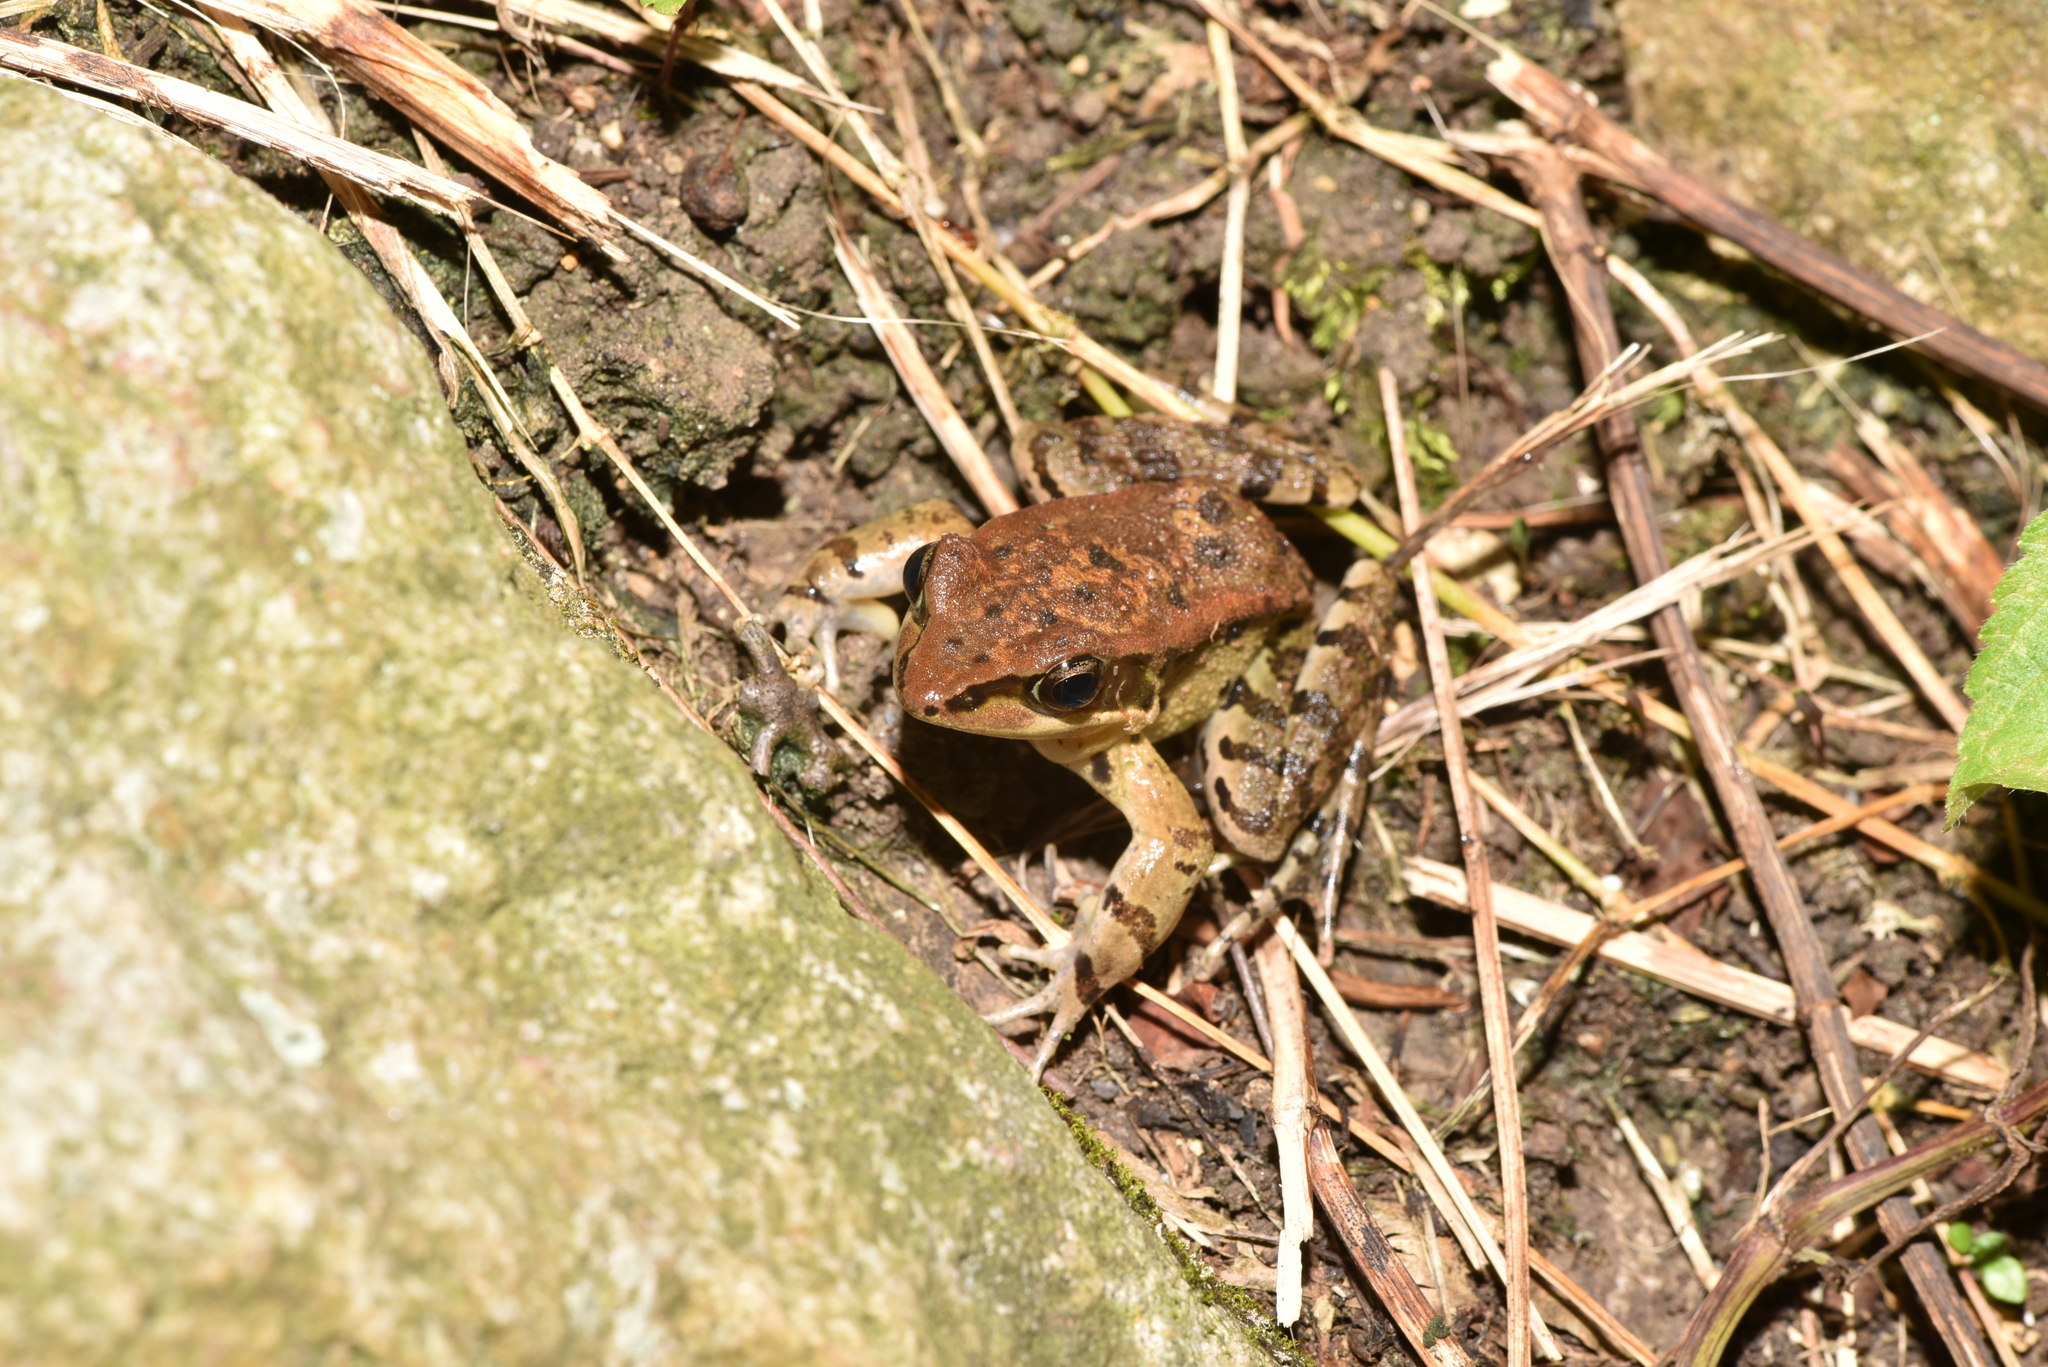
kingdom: Animalia
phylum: Chordata
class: Amphibia
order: Anura
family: Ranidae
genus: Hylarana
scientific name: Hylarana latouchii
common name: Broad-folded frog
